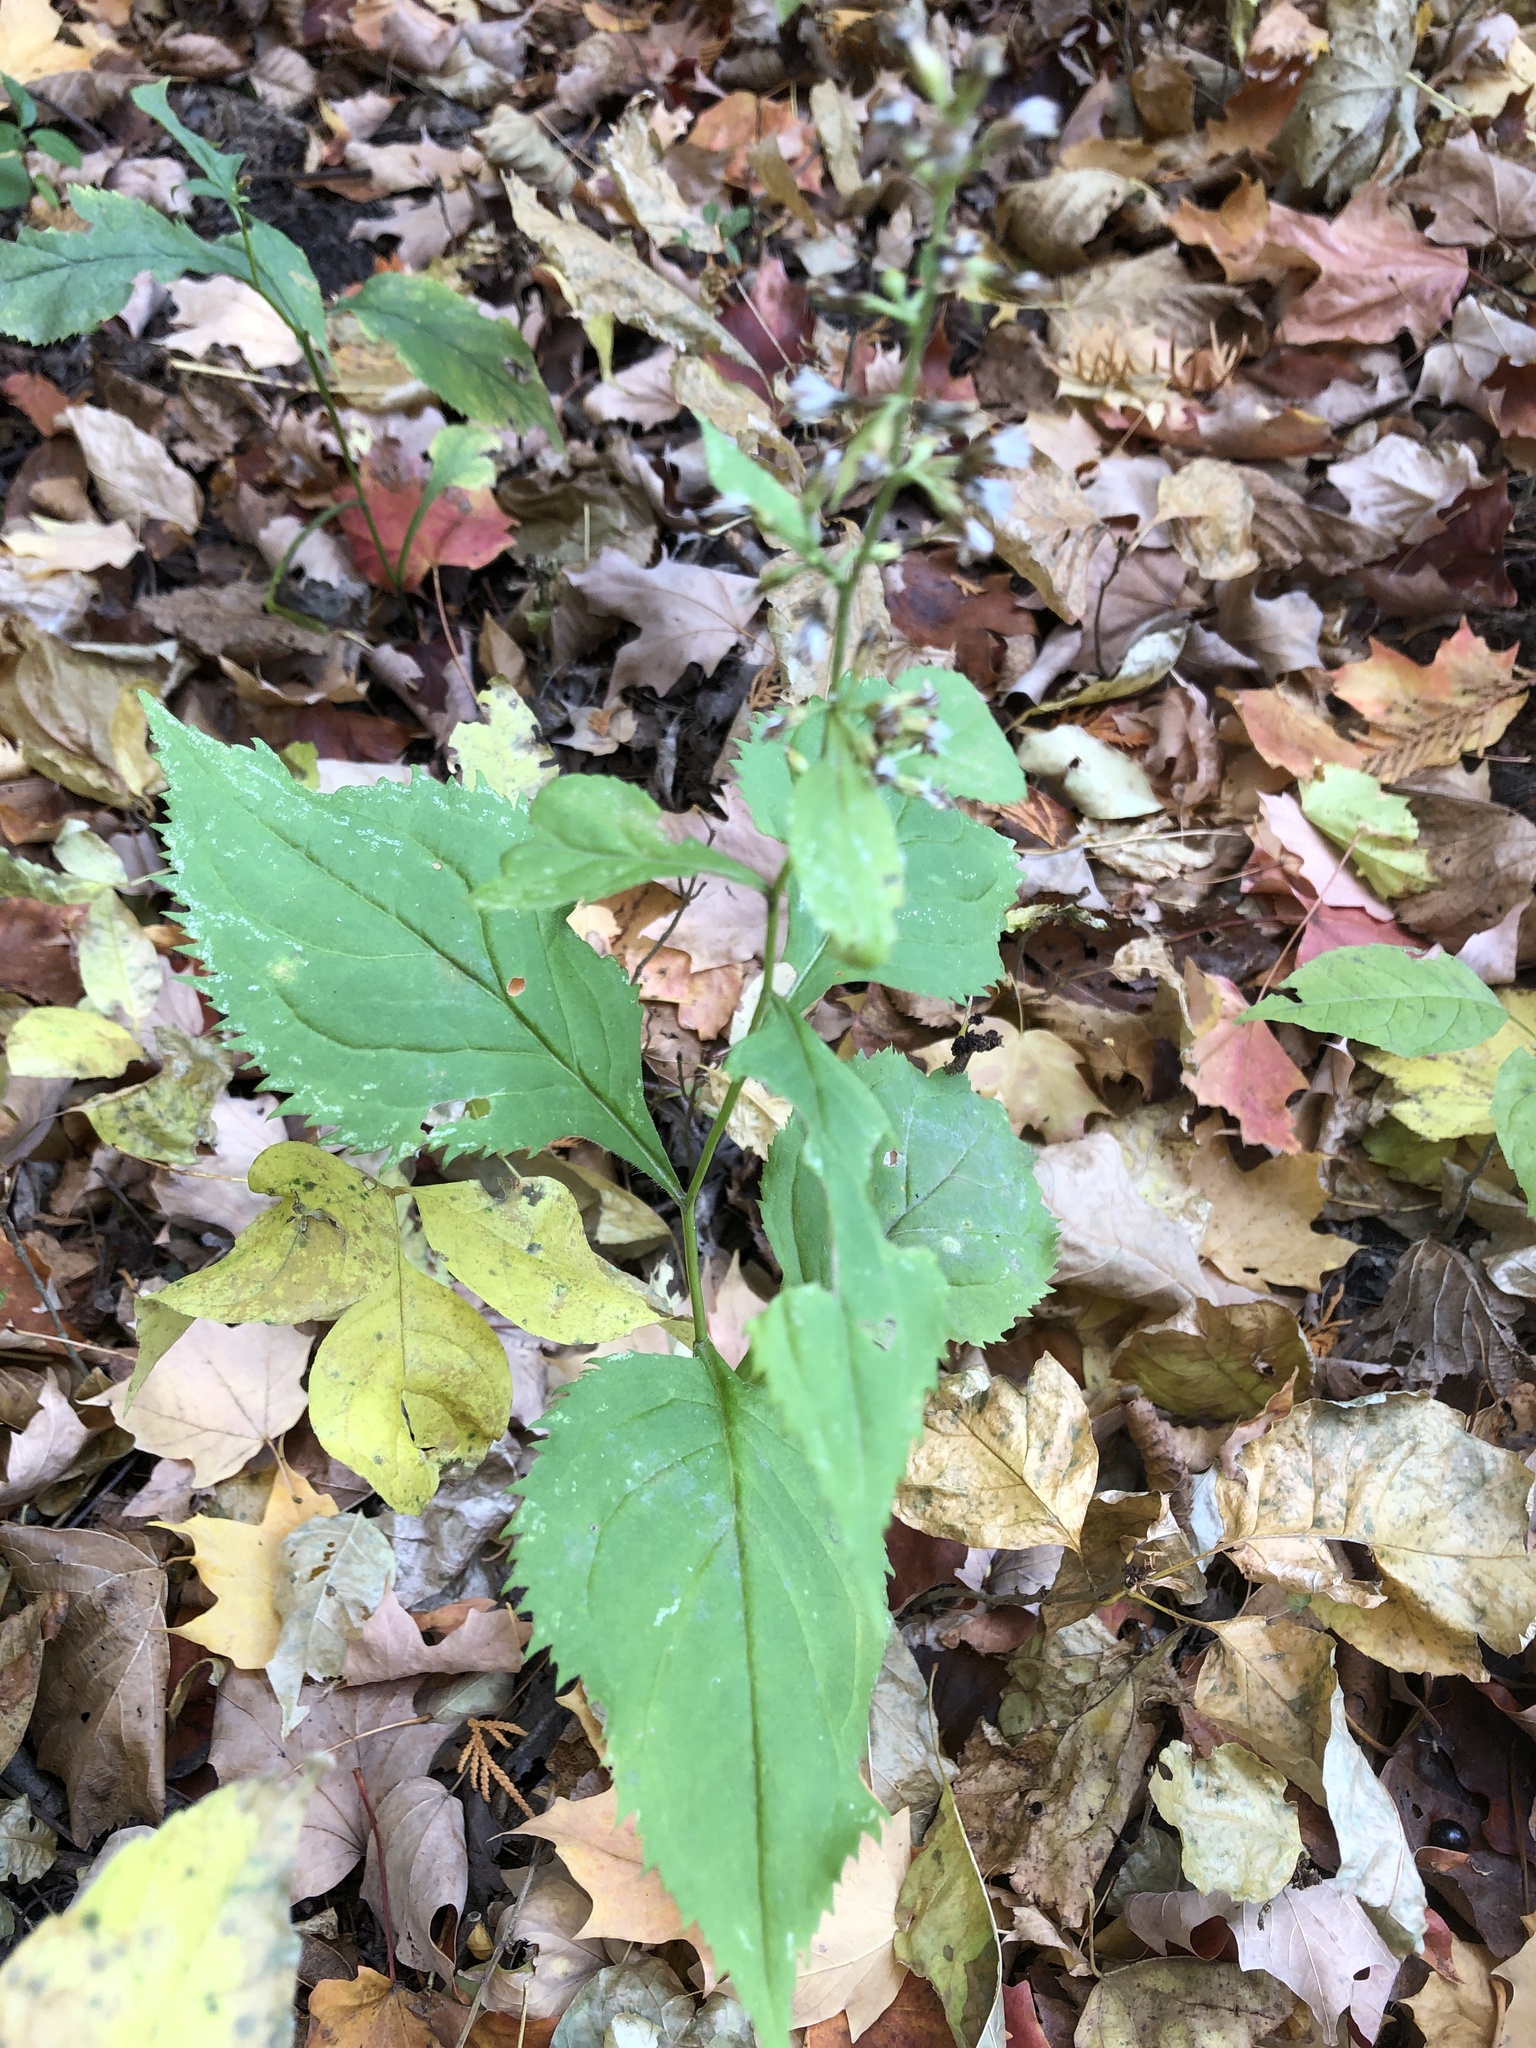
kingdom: Plantae
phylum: Tracheophyta
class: Magnoliopsida
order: Asterales
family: Asteraceae
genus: Solidago
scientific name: Solidago flexicaulis
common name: Zig-zag goldenrod
